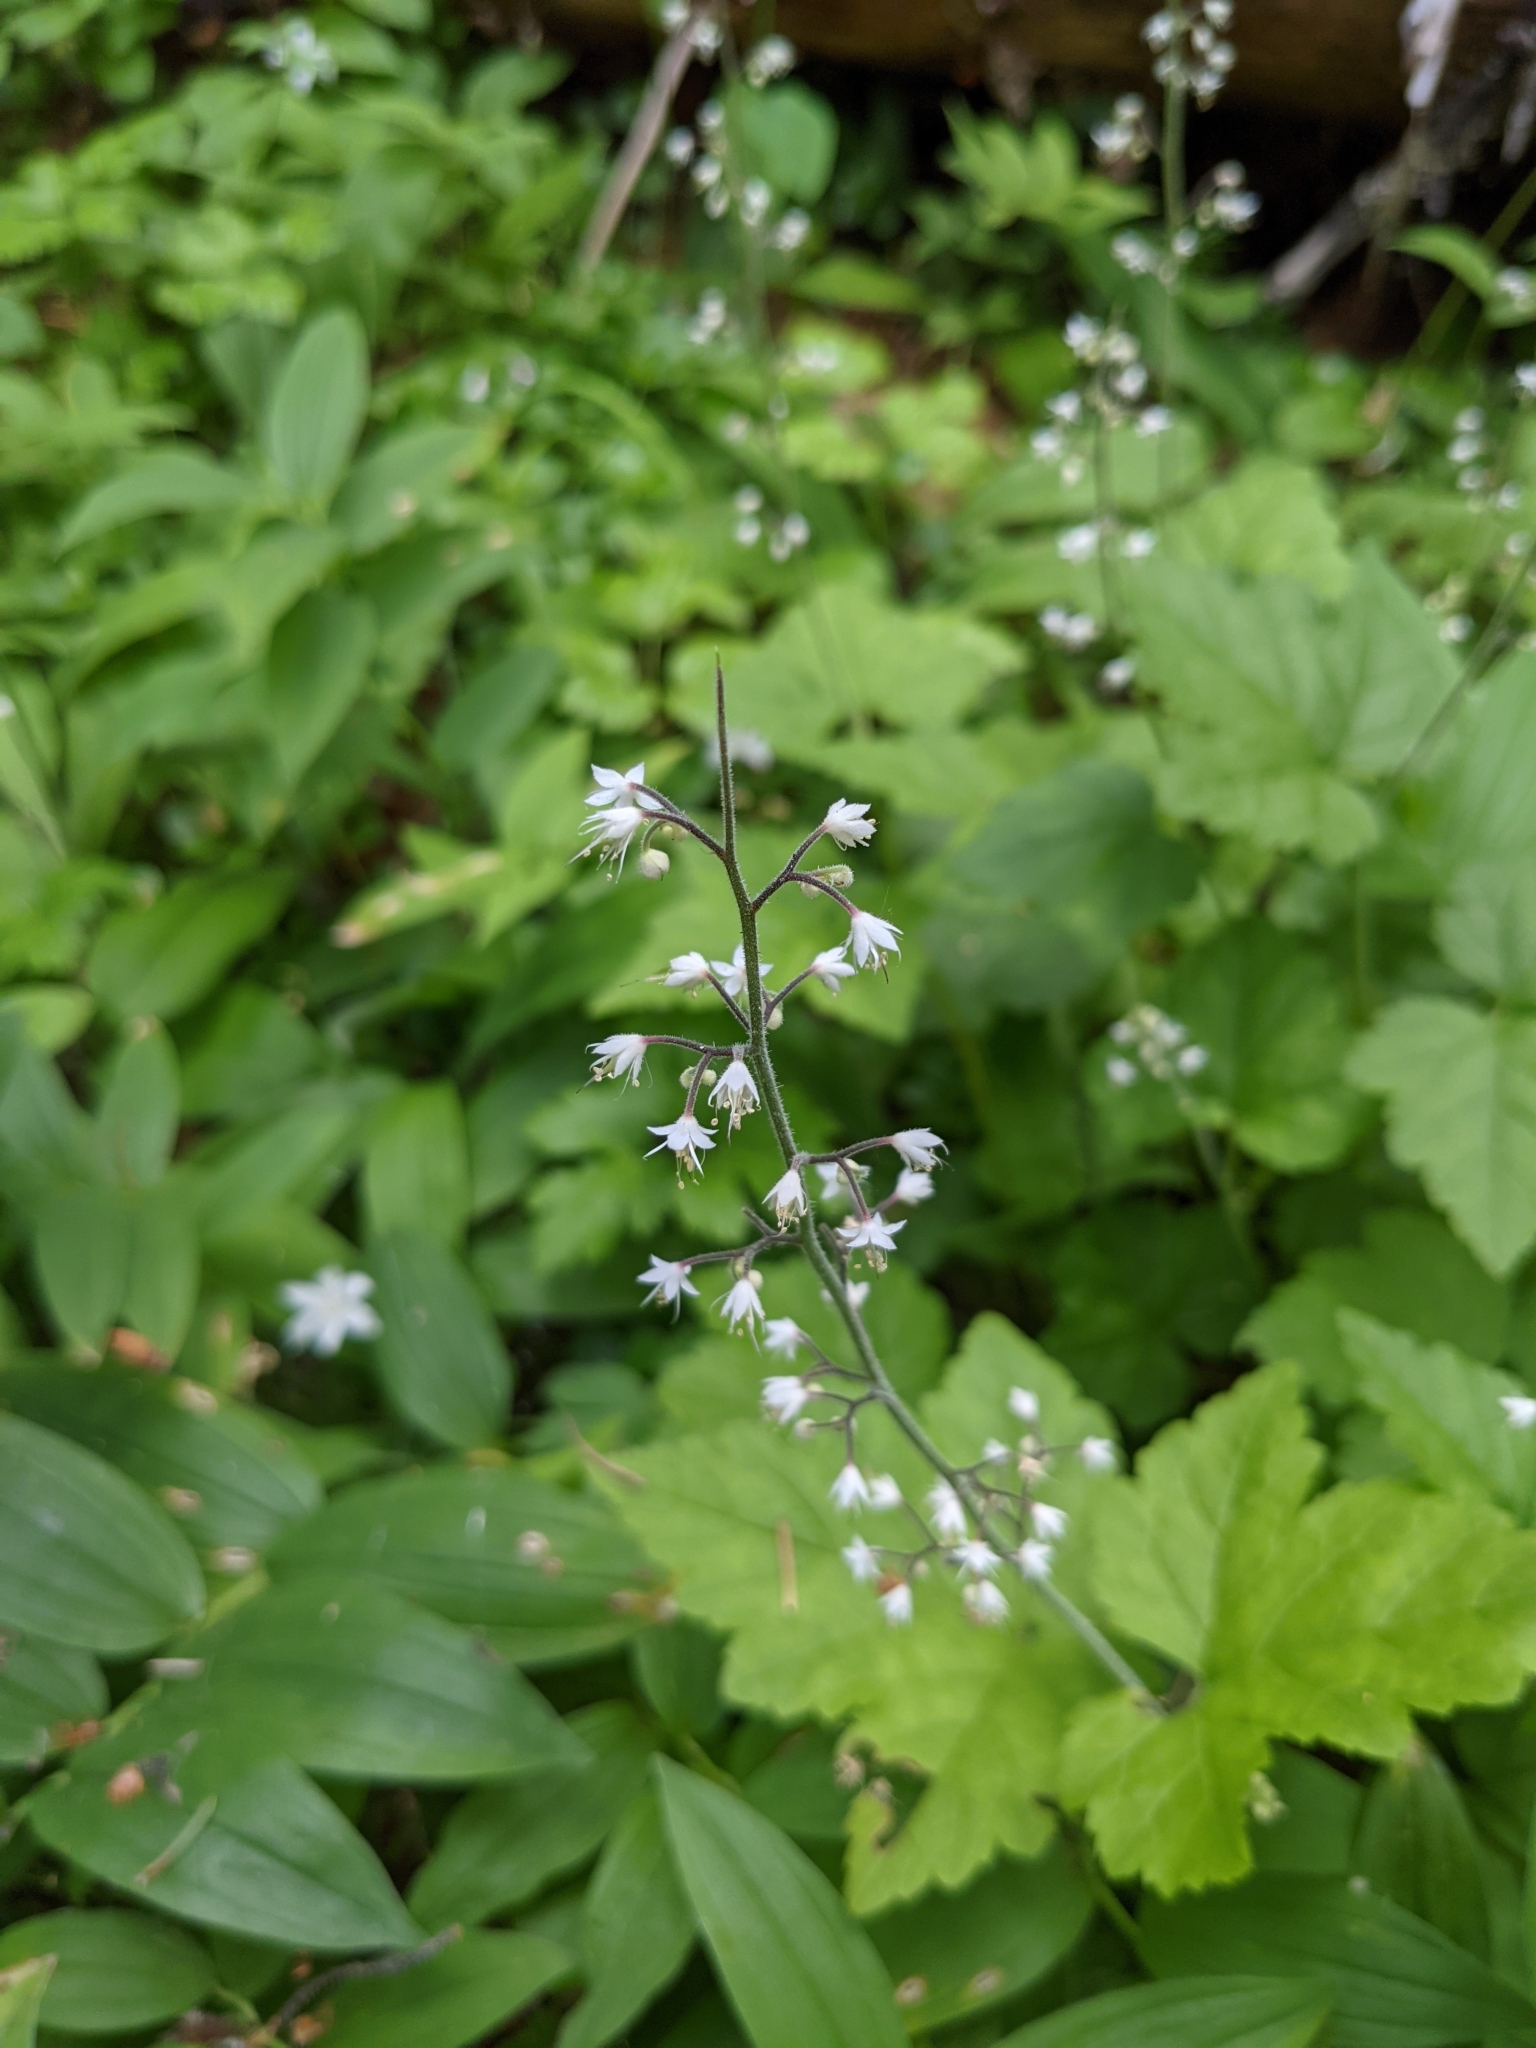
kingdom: Plantae
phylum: Tracheophyta
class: Magnoliopsida
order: Saxifragales
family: Saxifragaceae
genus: Tiarella
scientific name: Tiarella trifoliata
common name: Sugar-scoop
